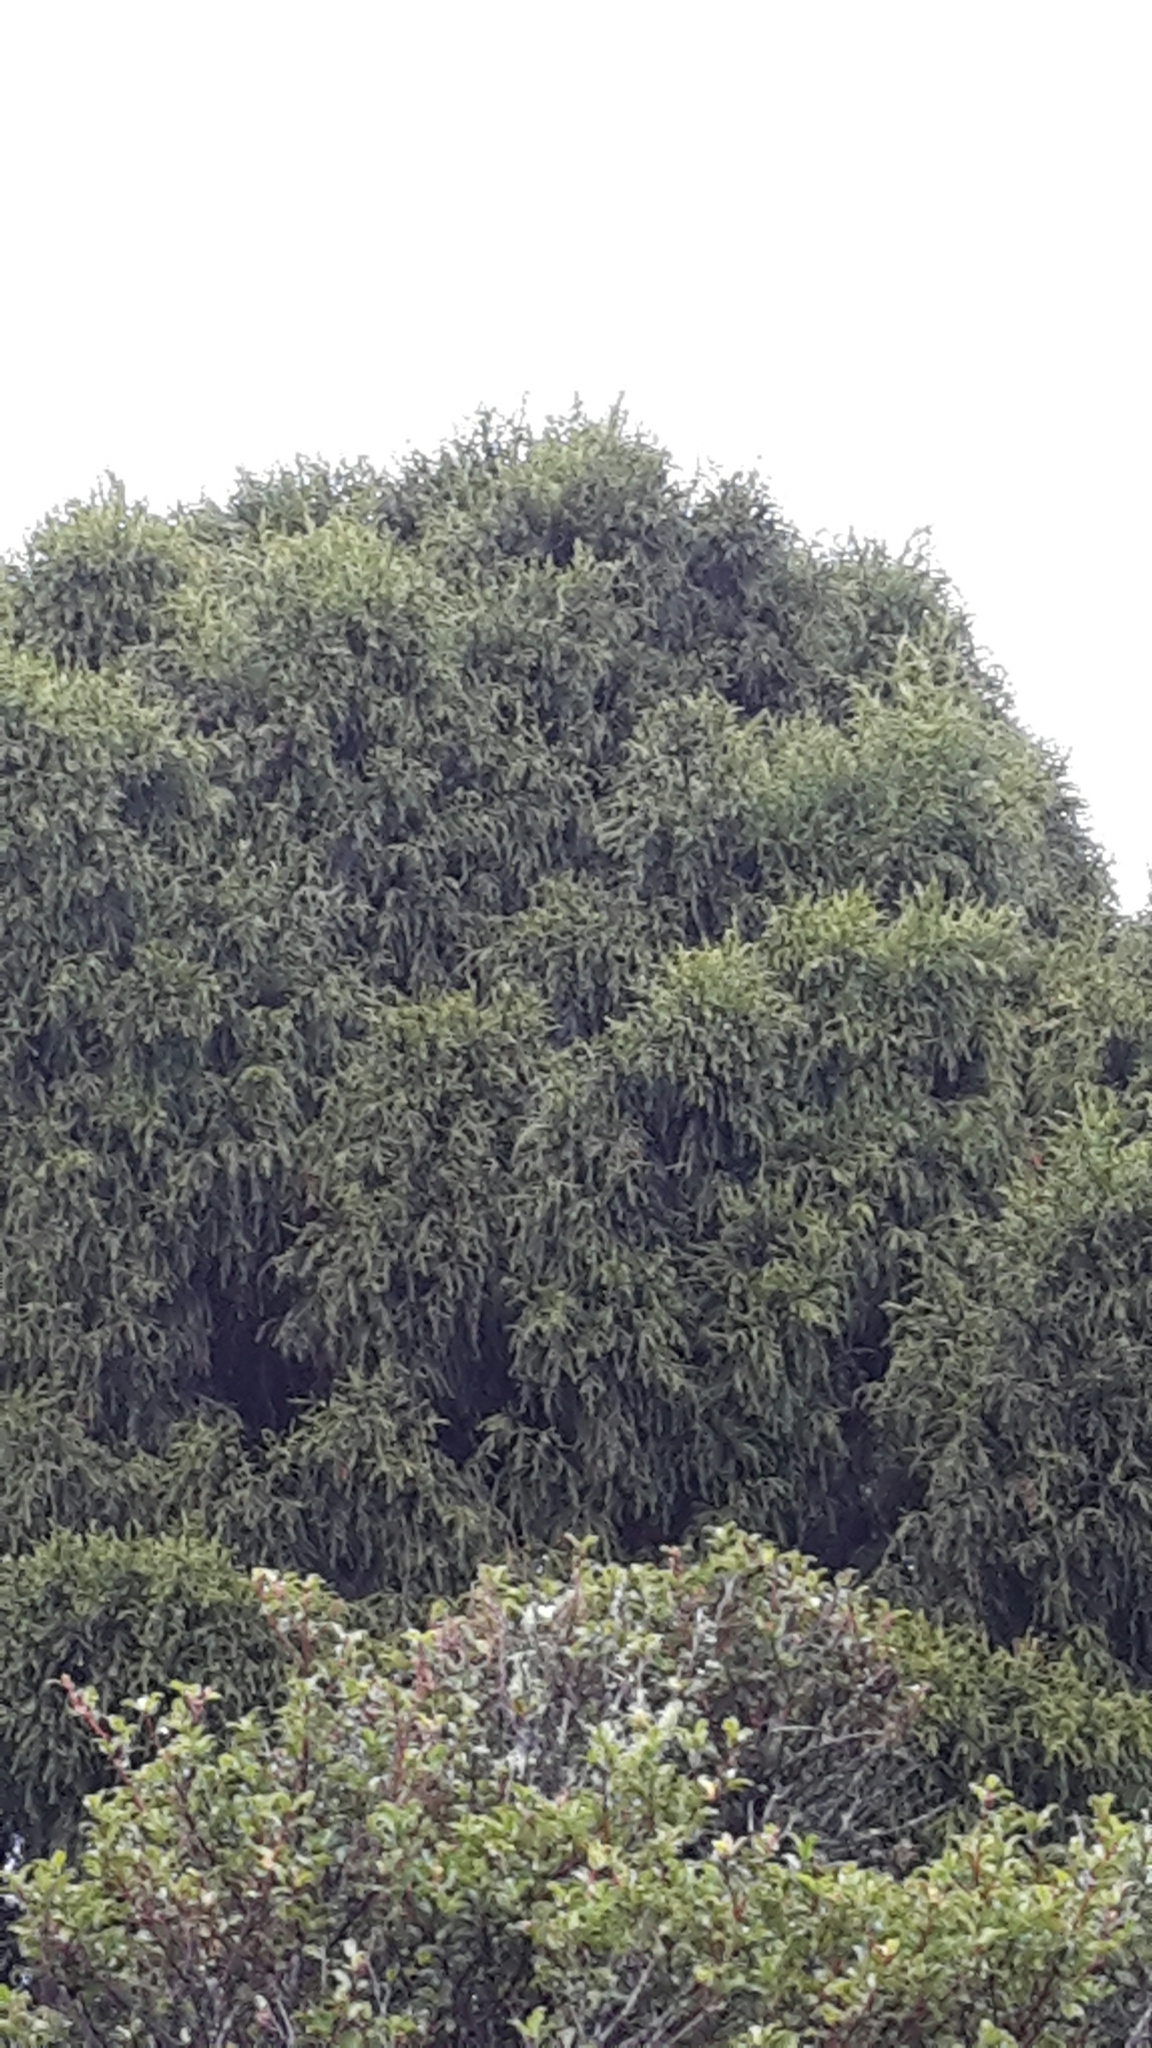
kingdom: Plantae
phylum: Tracheophyta
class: Pinopsida
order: Pinales
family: Podocarpaceae
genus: Dacrydium
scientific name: Dacrydium cupressinum
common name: Red pine
